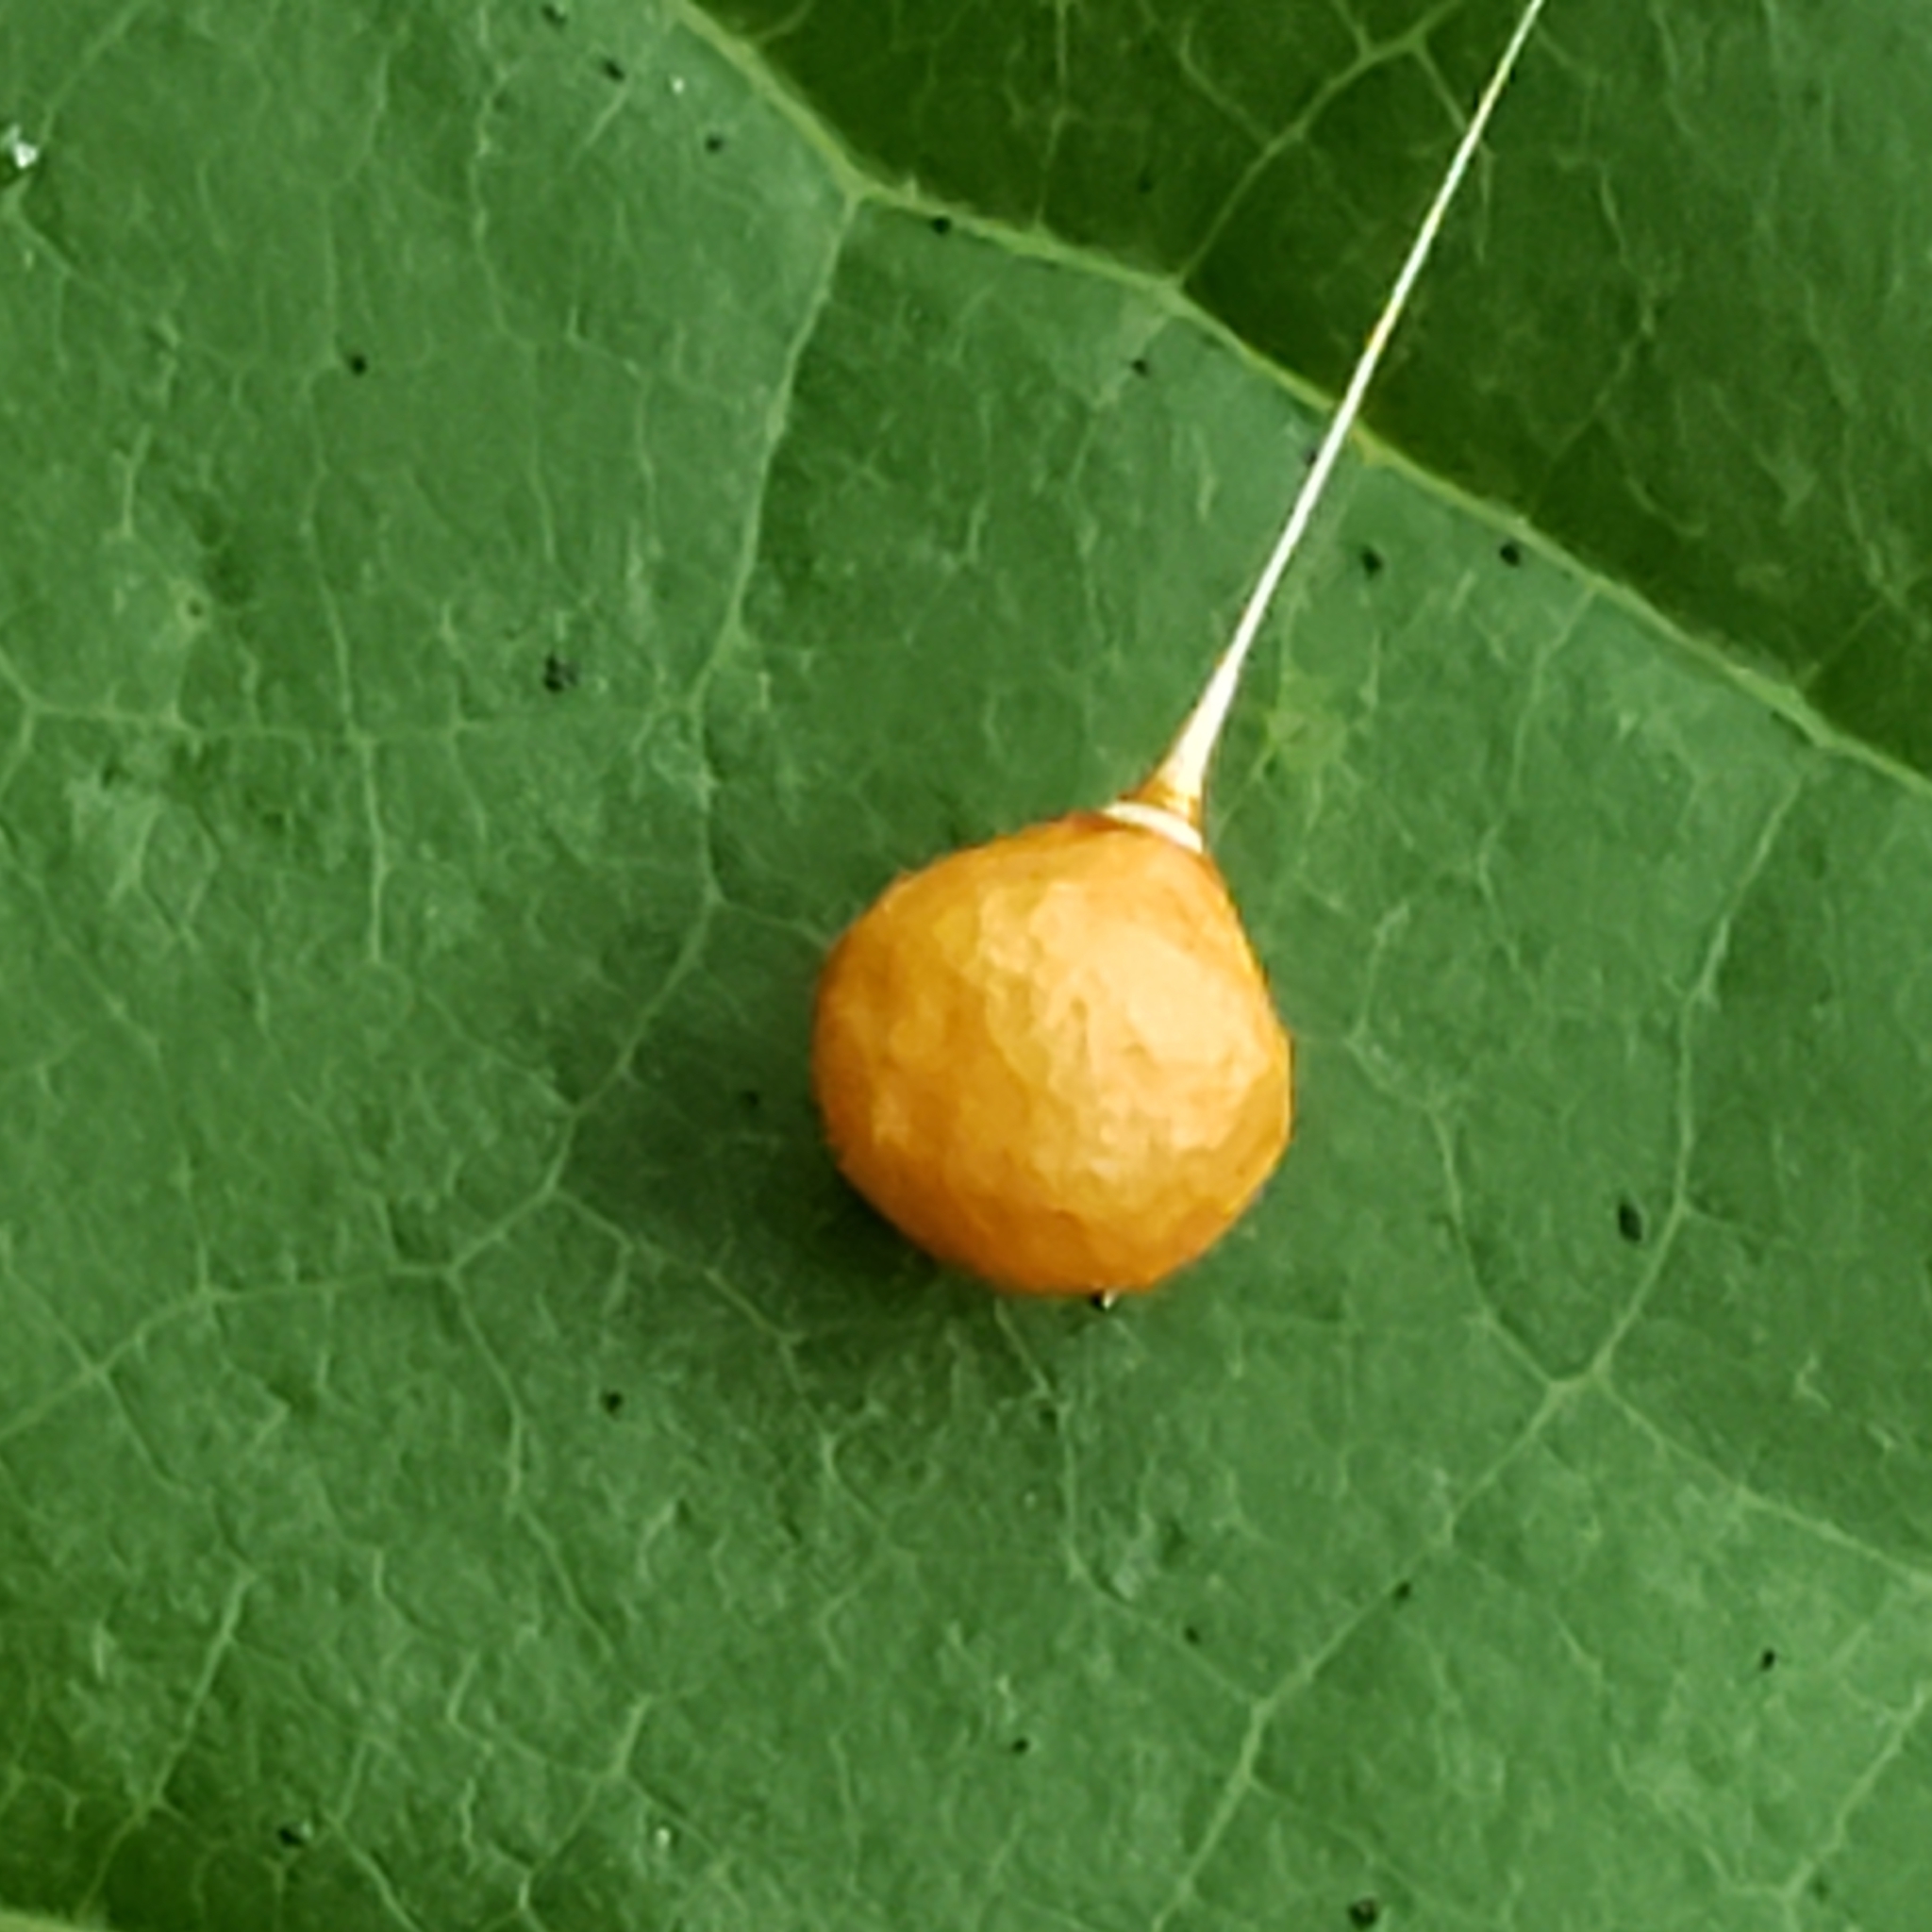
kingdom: Animalia
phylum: Arthropoda
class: Arachnida
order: Araneae
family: Theridiosomatidae
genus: Theridiosoma
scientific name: Theridiosoma gemmosum
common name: Ray spider
